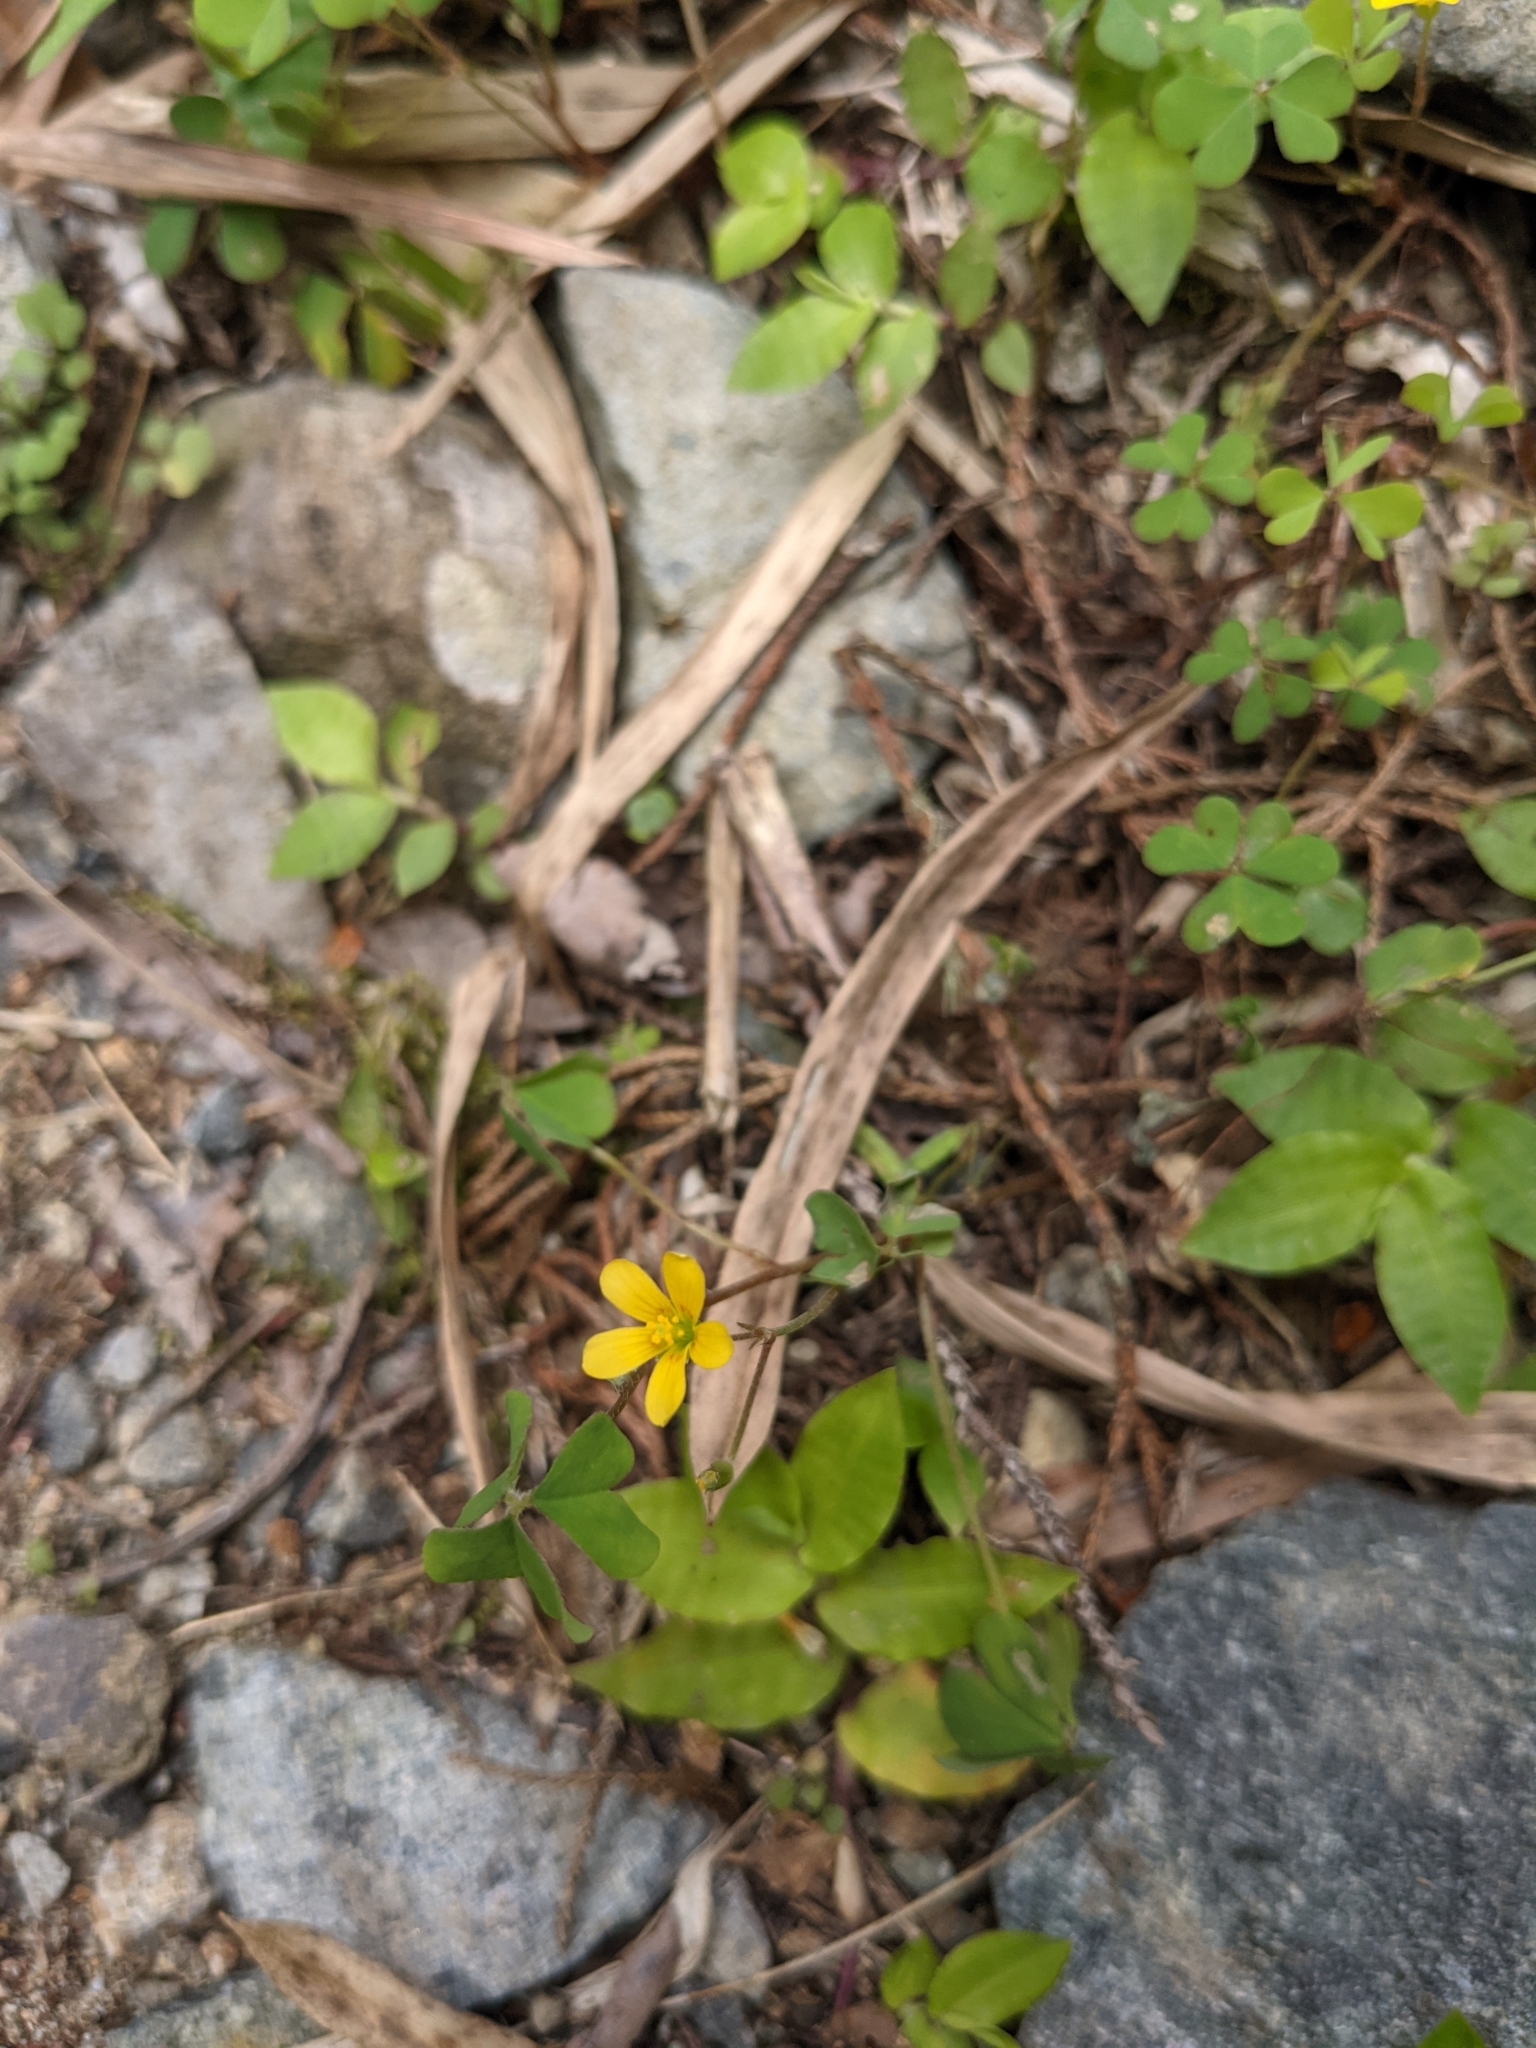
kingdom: Plantae
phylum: Tracheophyta
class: Magnoliopsida
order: Oxalidales
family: Oxalidaceae
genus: Oxalis
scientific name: Oxalis corniculata
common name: Procumbent yellow-sorrel
